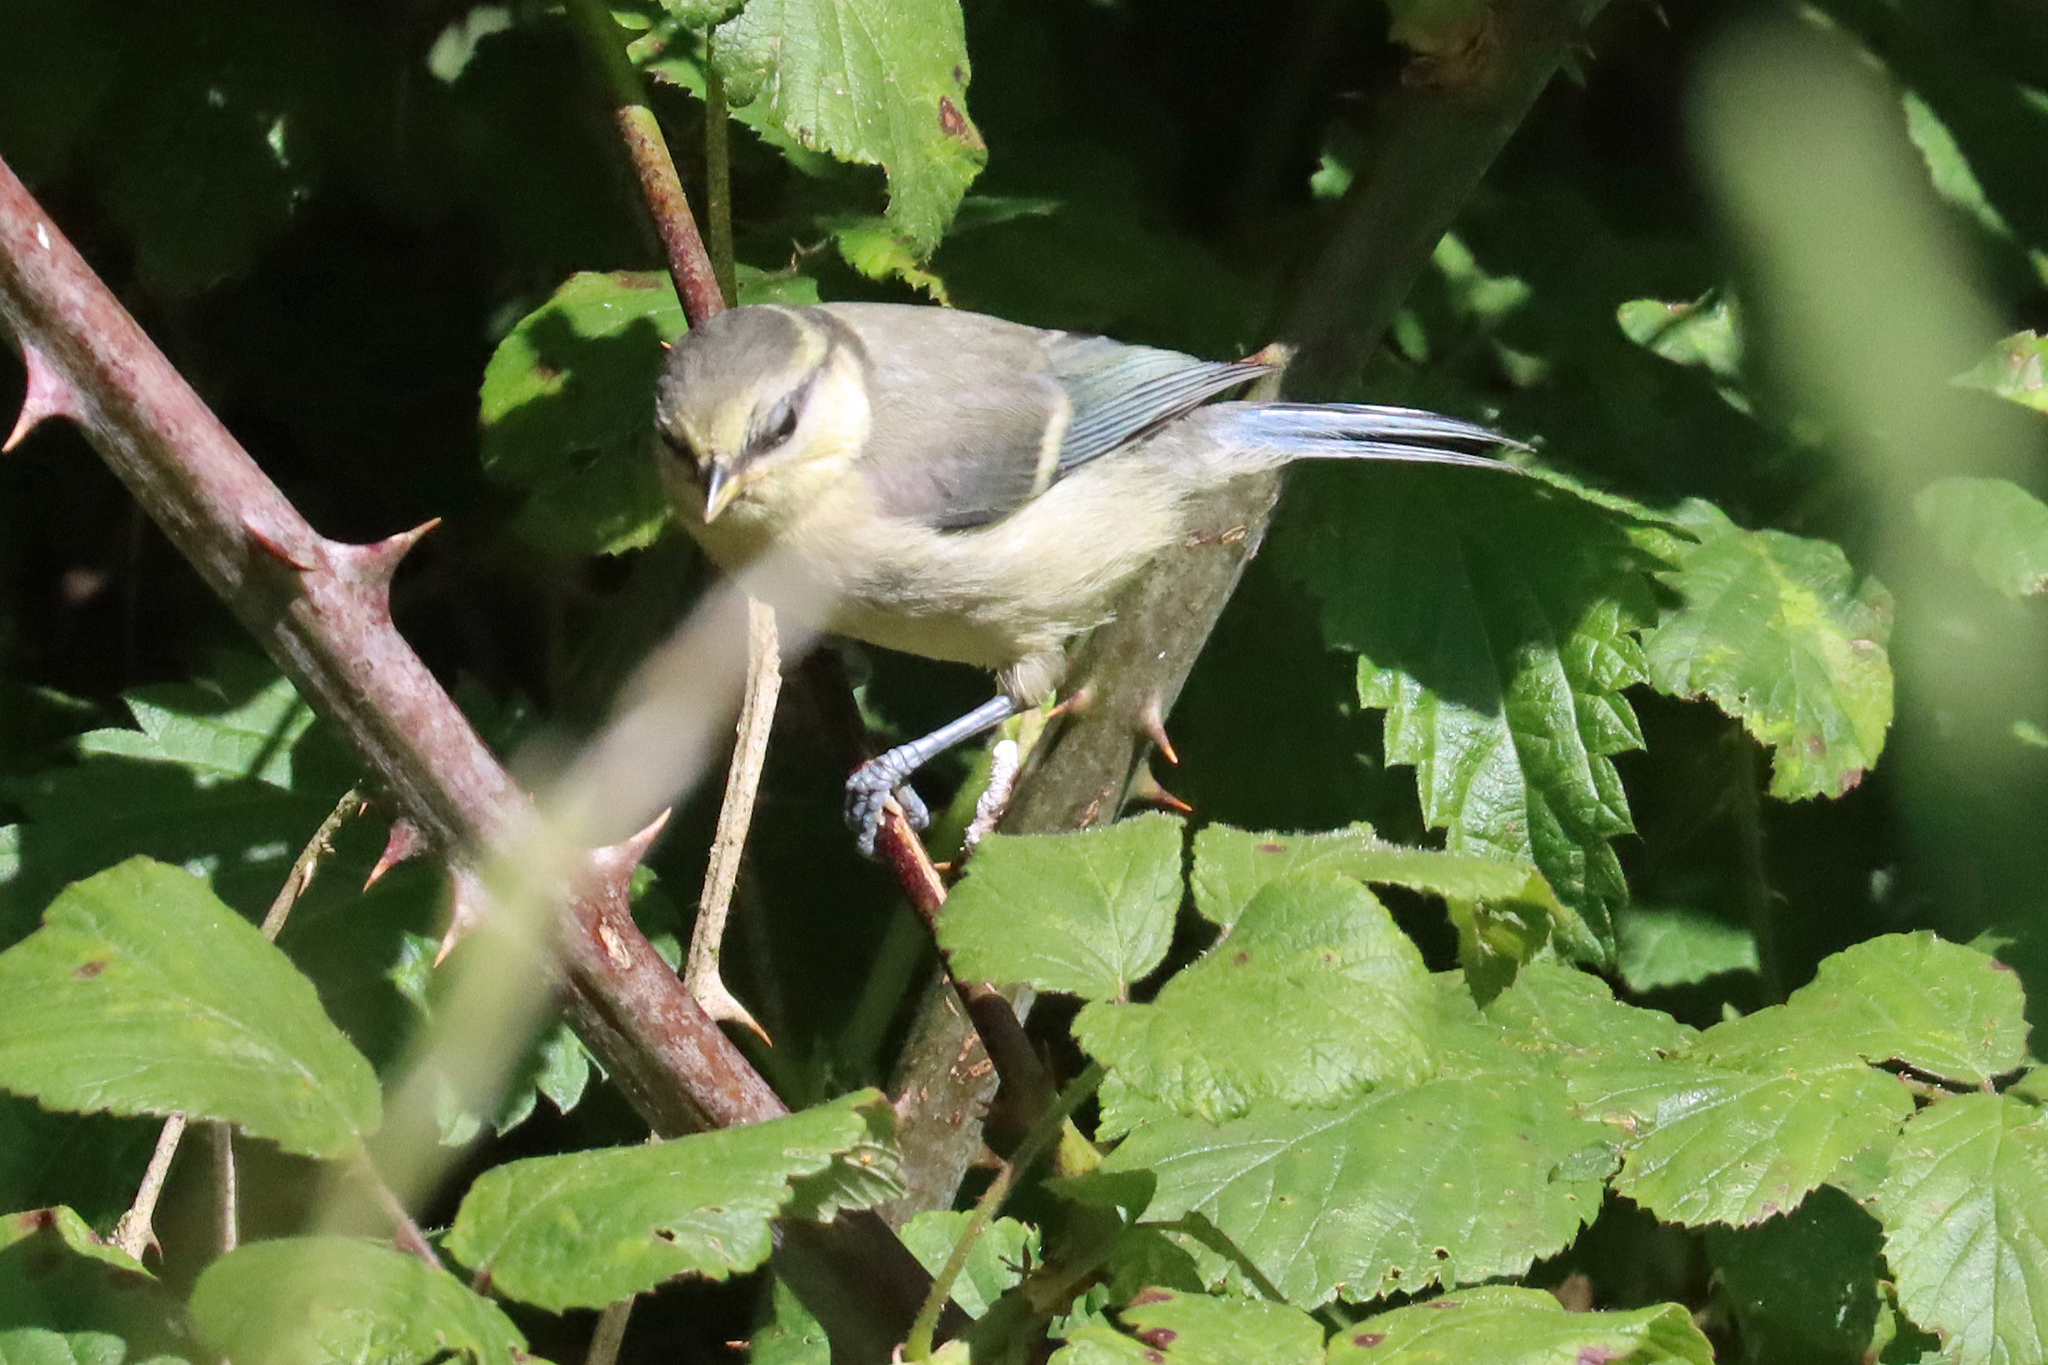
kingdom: Animalia
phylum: Chordata
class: Aves
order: Passeriformes
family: Paridae
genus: Cyanistes
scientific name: Cyanistes caeruleus
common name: Eurasian blue tit
